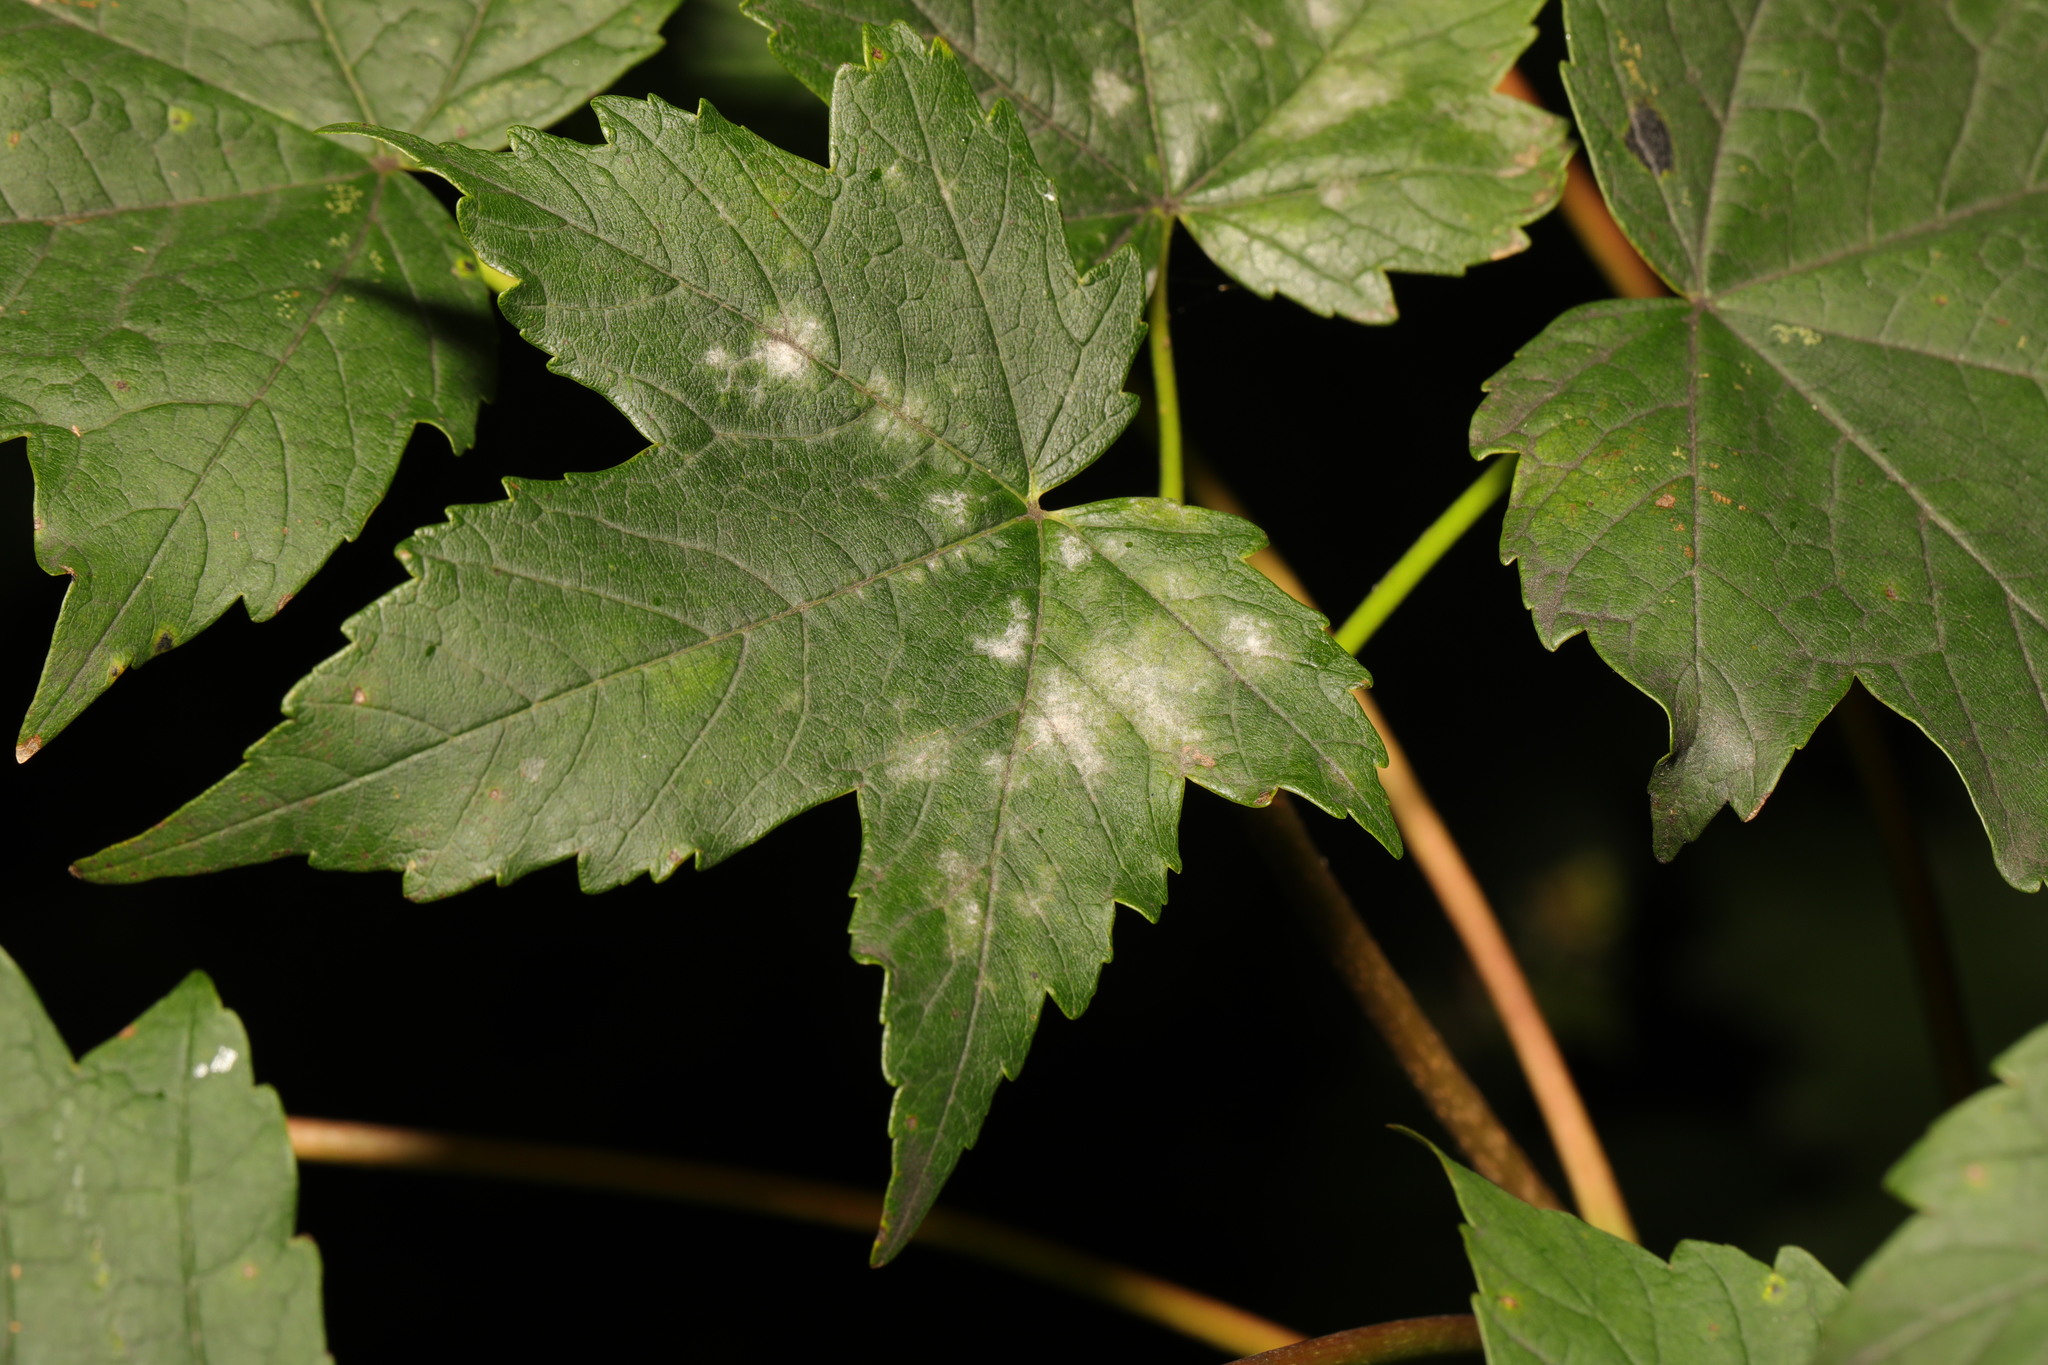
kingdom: Fungi
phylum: Ascomycota
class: Leotiomycetes
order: Helotiales
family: Erysiphaceae
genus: Sawadaea
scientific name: Sawadaea bicornis
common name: Maple mildew
